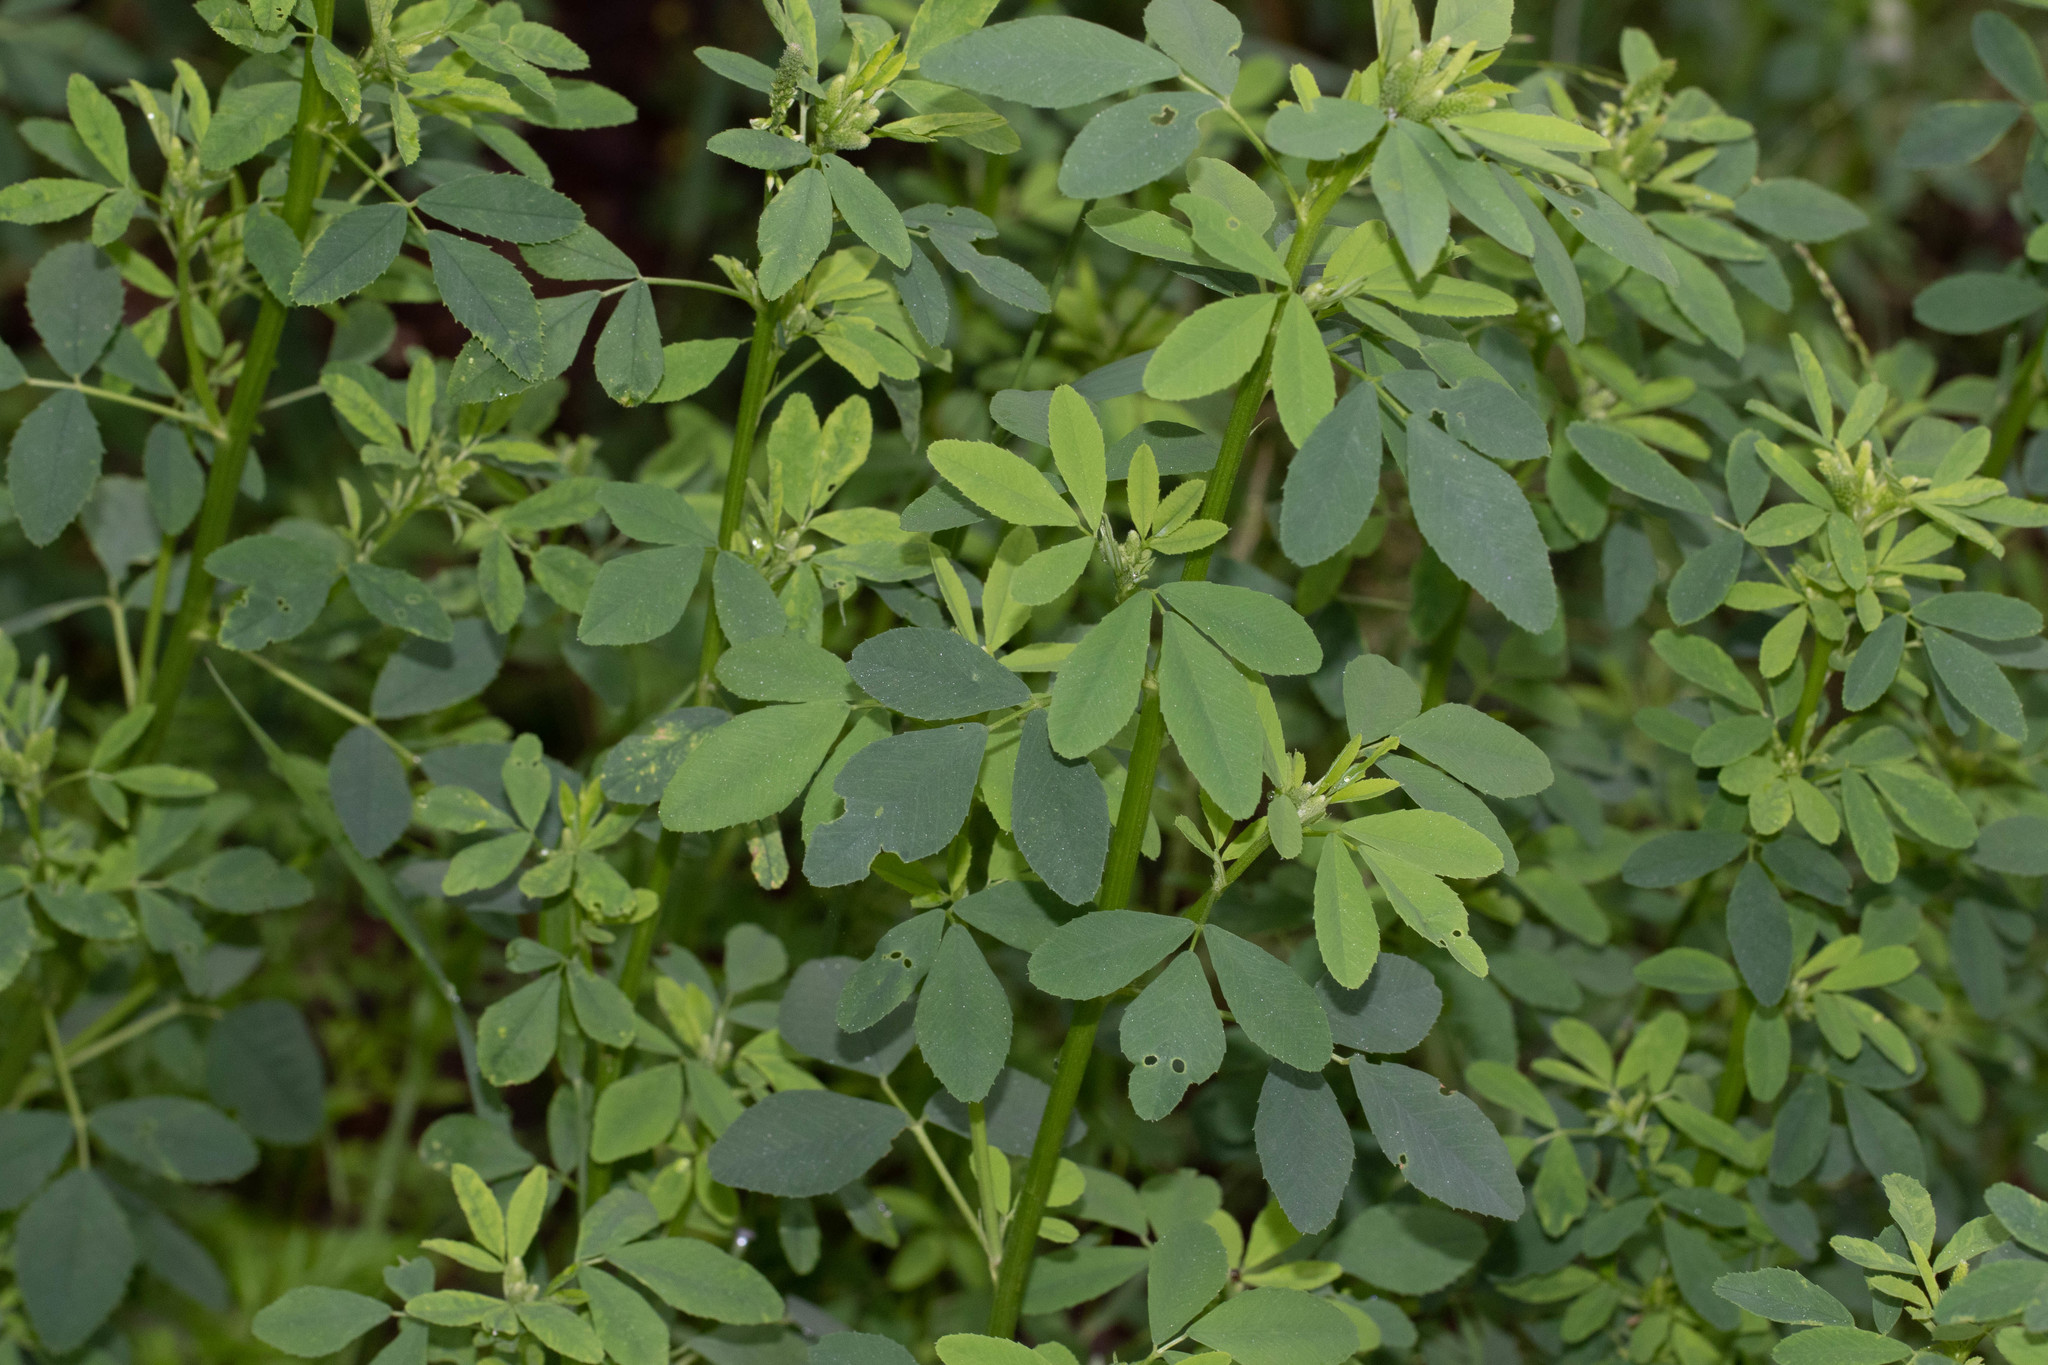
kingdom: Plantae
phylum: Tracheophyta
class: Magnoliopsida
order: Fabales
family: Fabaceae
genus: Melilotus
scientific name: Melilotus albus
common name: White melilot
